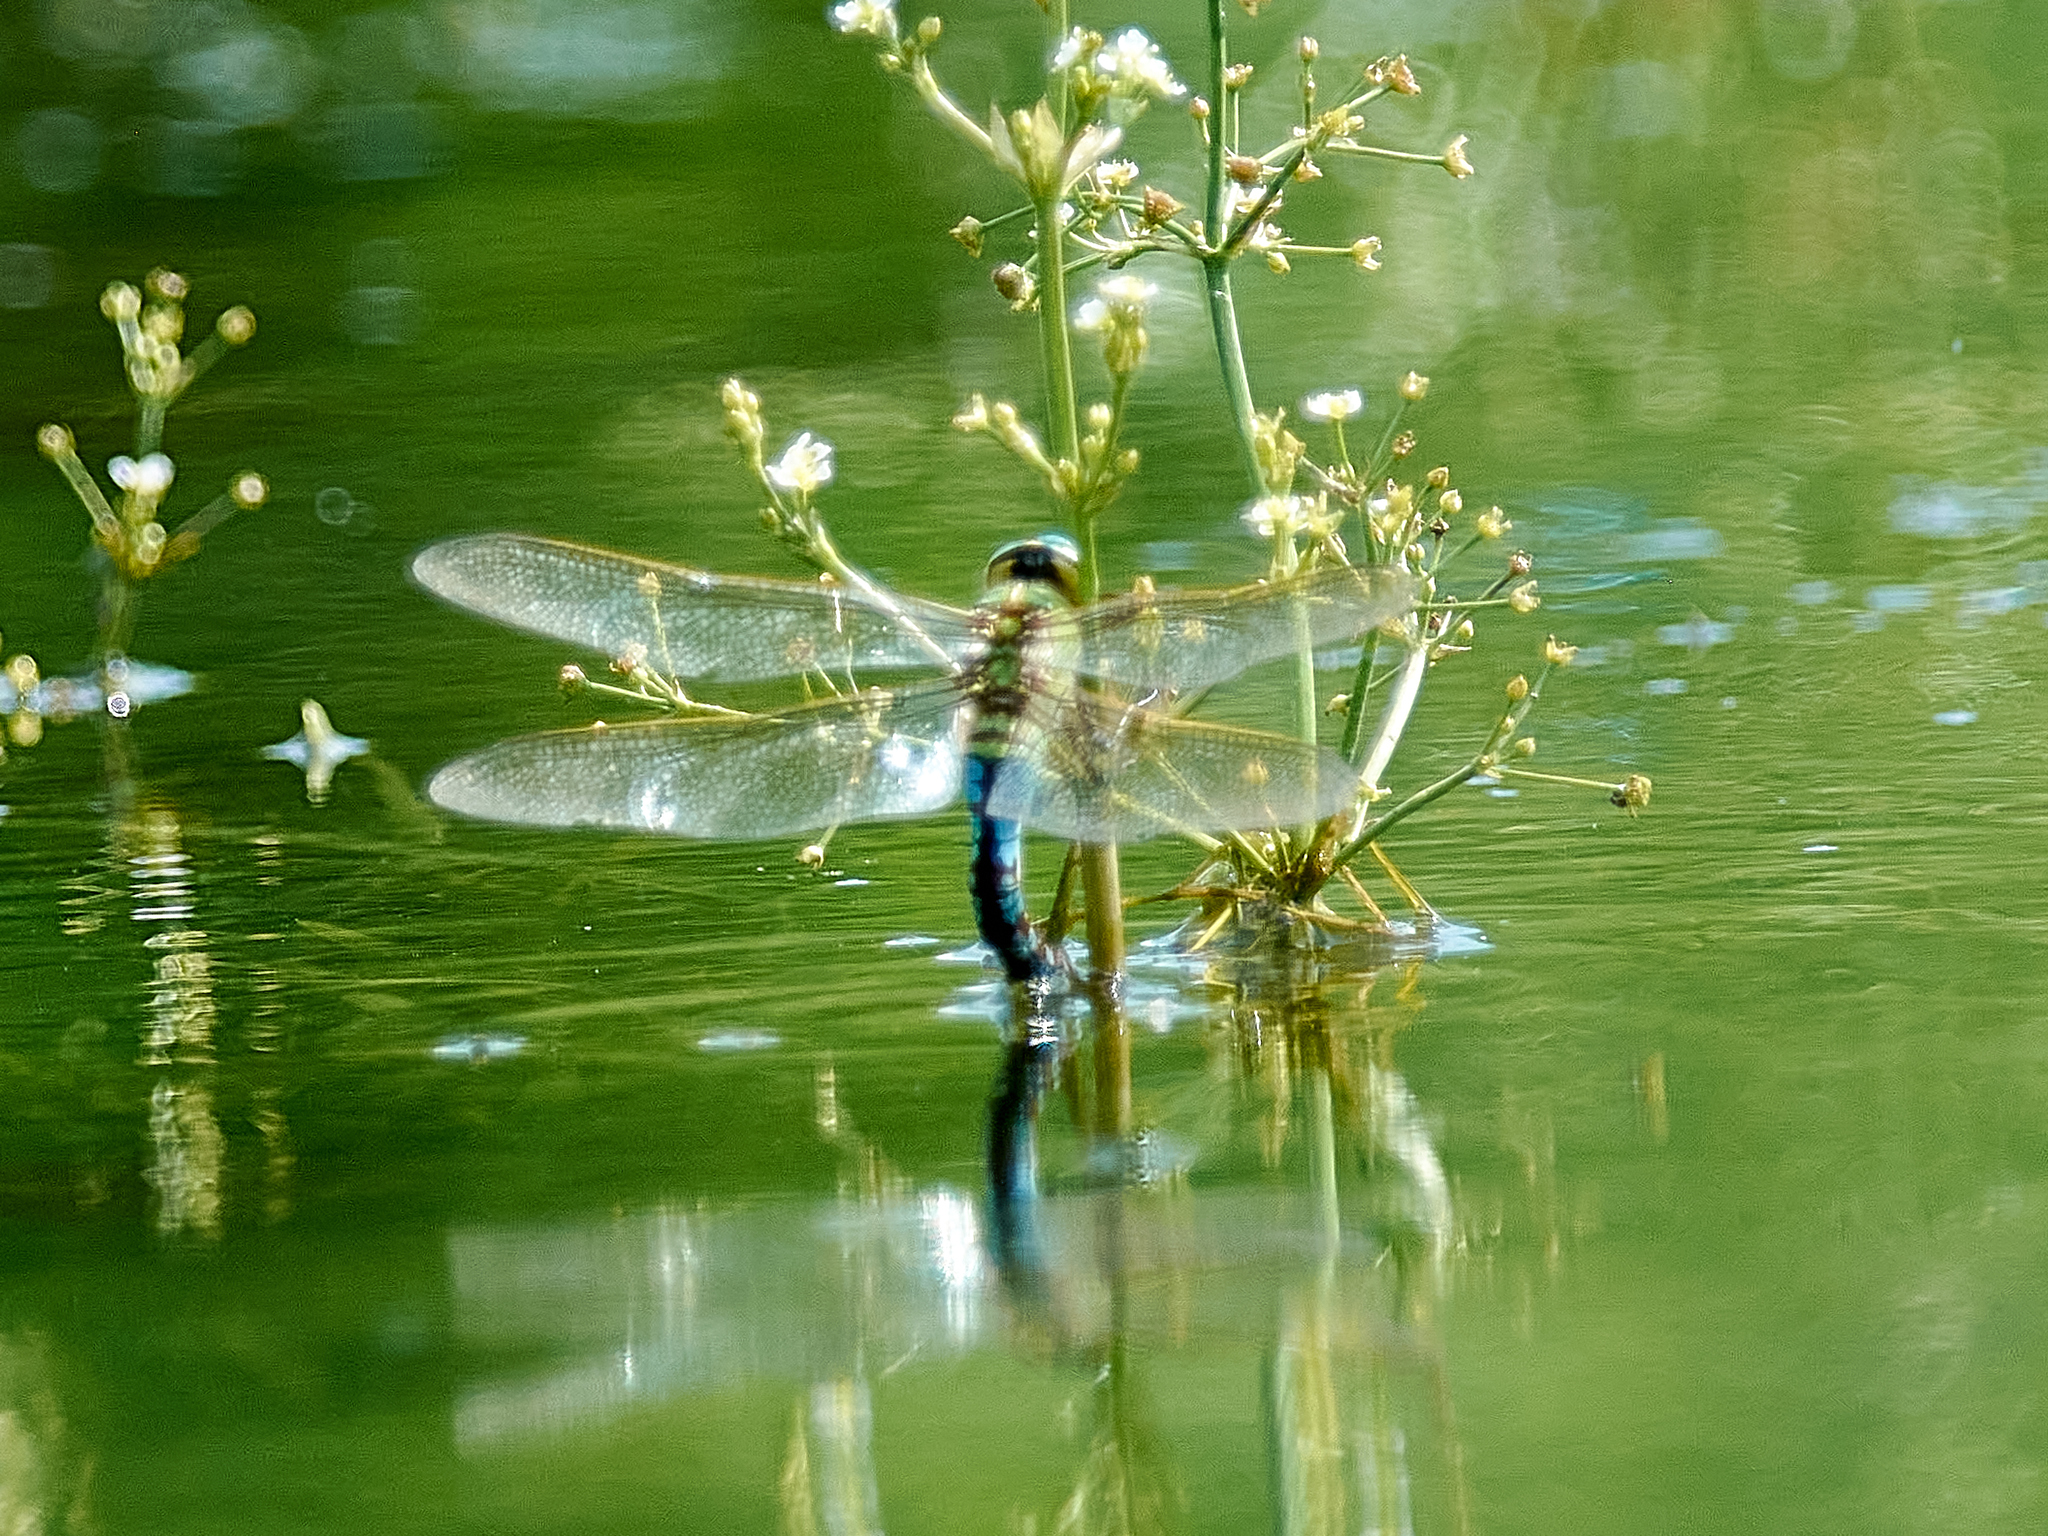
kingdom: Animalia
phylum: Arthropoda
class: Insecta
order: Odonata
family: Aeshnidae
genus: Anax
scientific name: Anax imperator
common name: Emperor dragonfly
